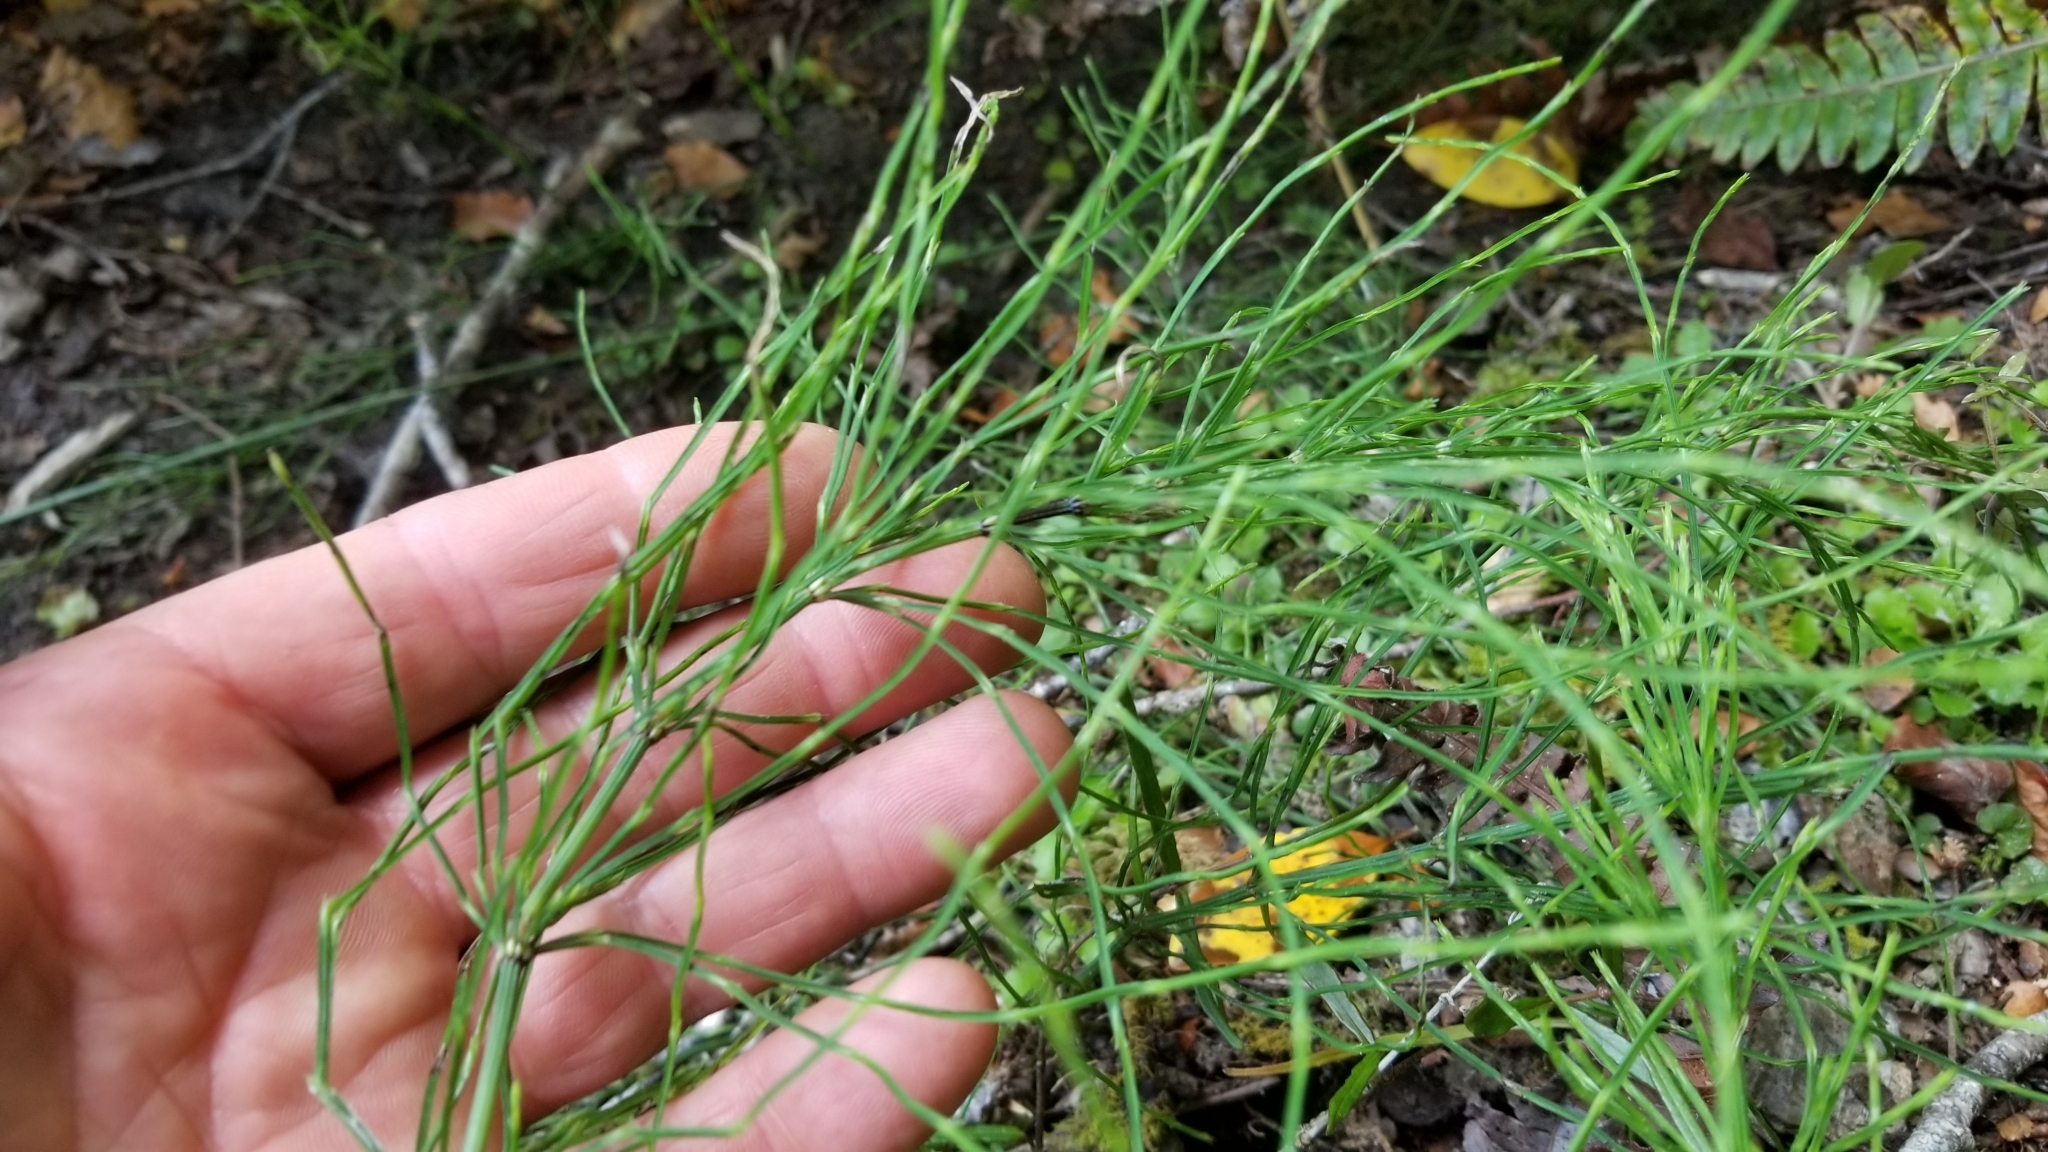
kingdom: Plantae
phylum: Tracheophyta
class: Polypodiopsida
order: Equisetales
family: Equisetaceae
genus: Equisetum
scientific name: Equisetum arvense
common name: Field horsetail
